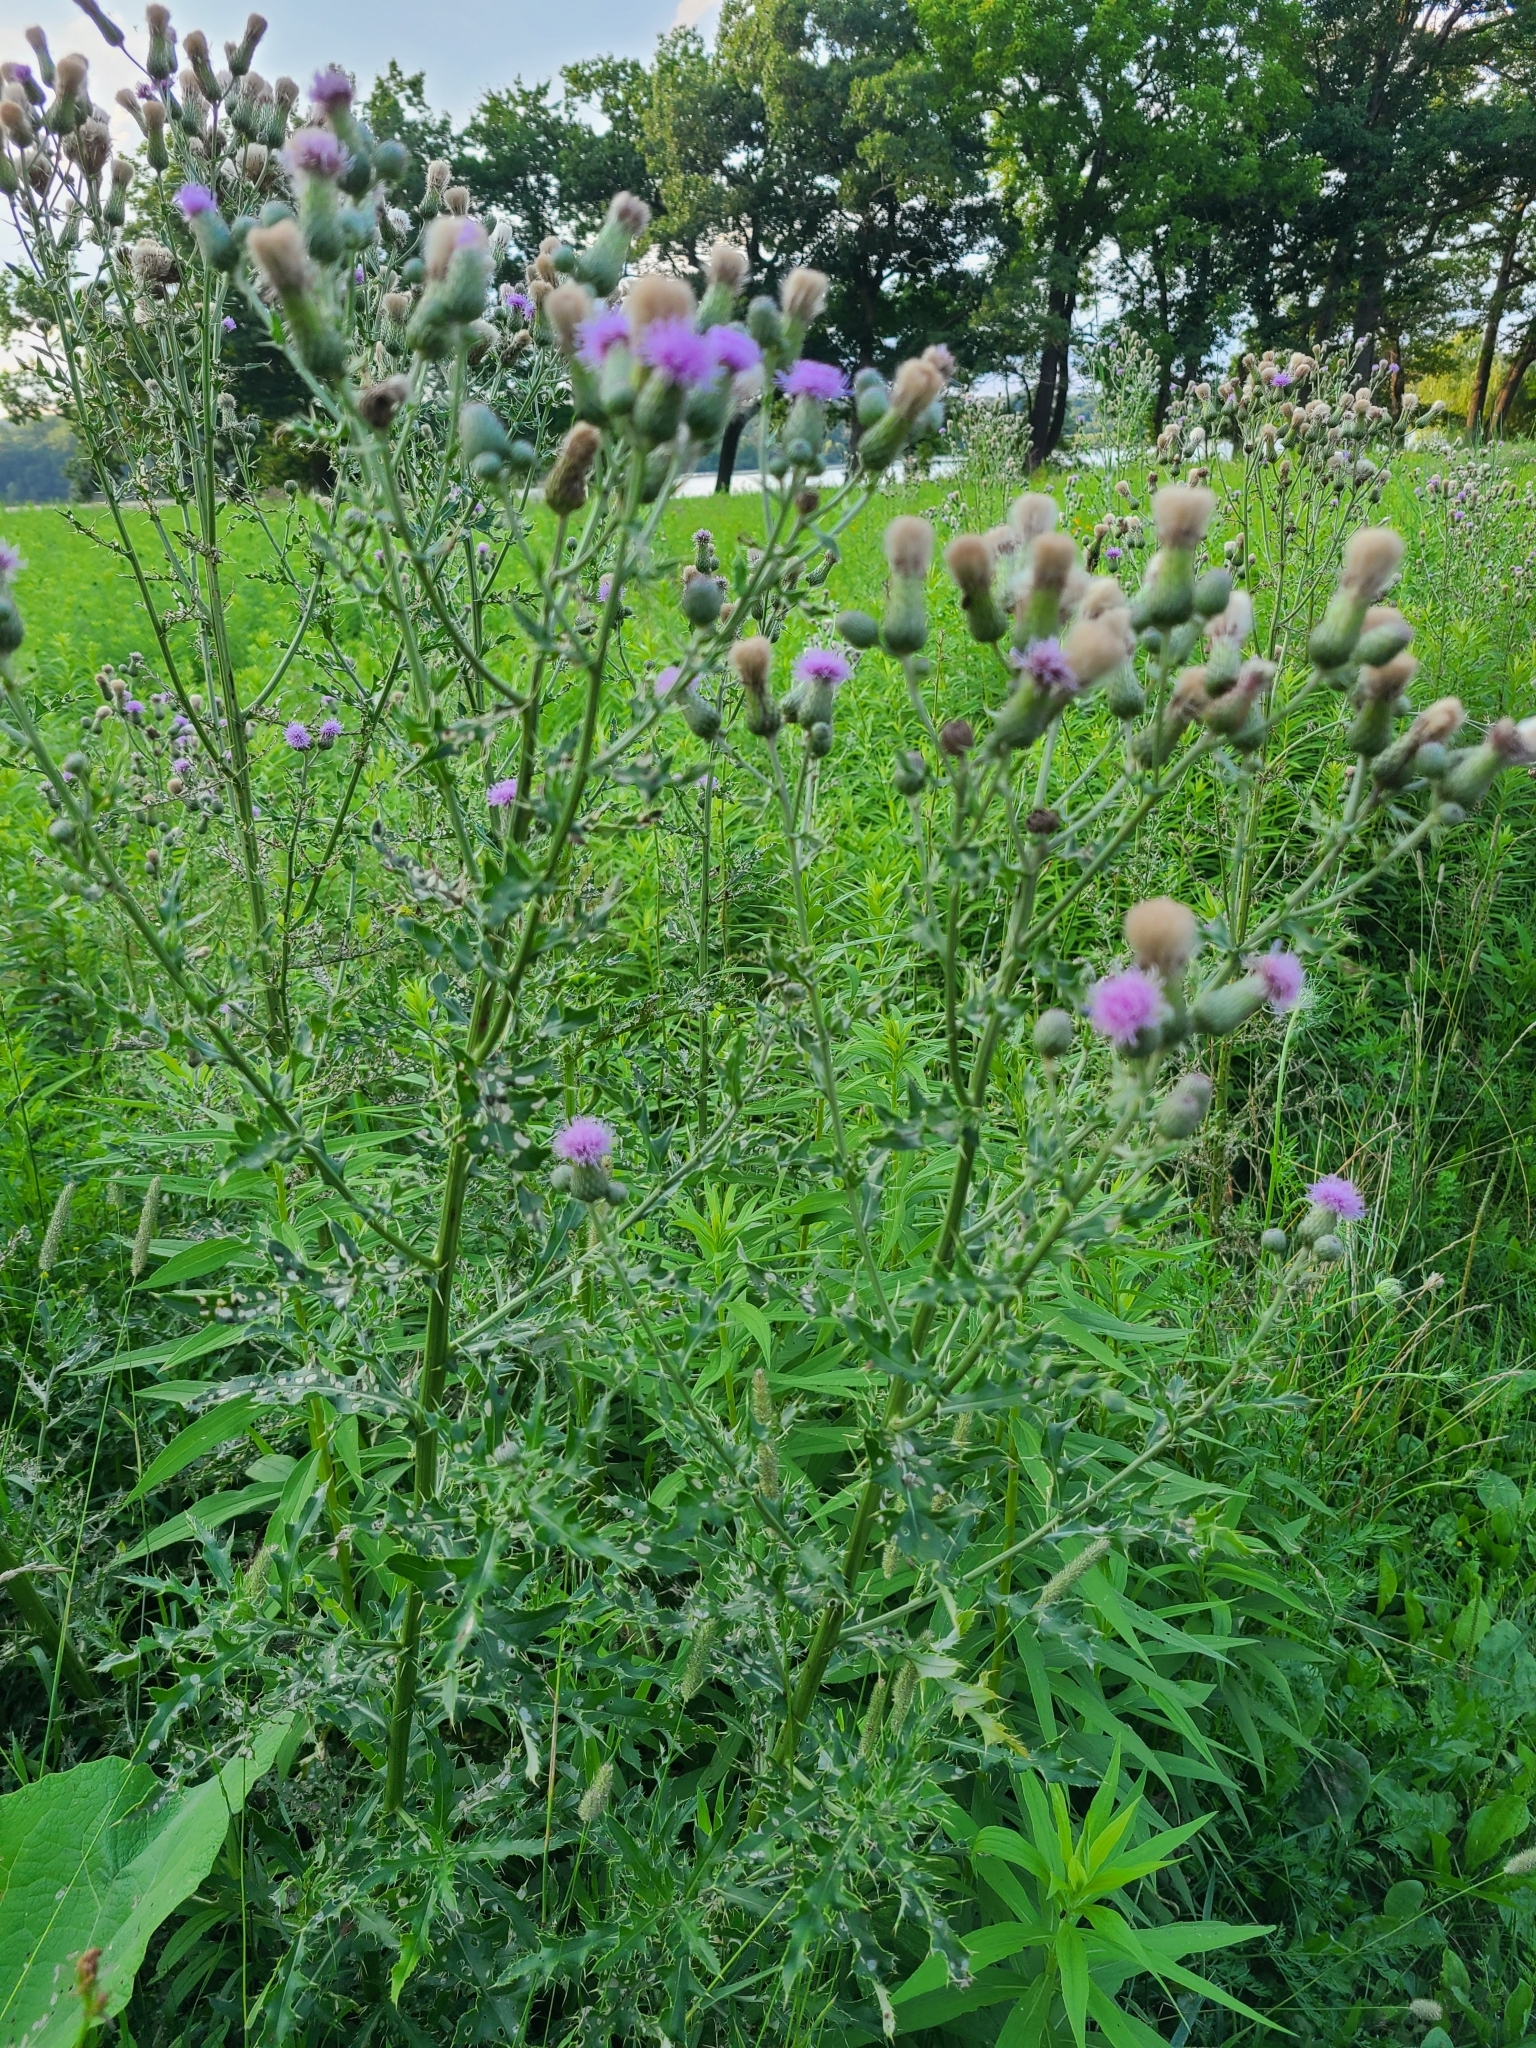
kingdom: Plantae
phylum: Tracheophyta
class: Magnoliopsida
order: Asterales
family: Asteraceae
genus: Cirsium
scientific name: Cirsium arvense
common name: Creeping thistle
